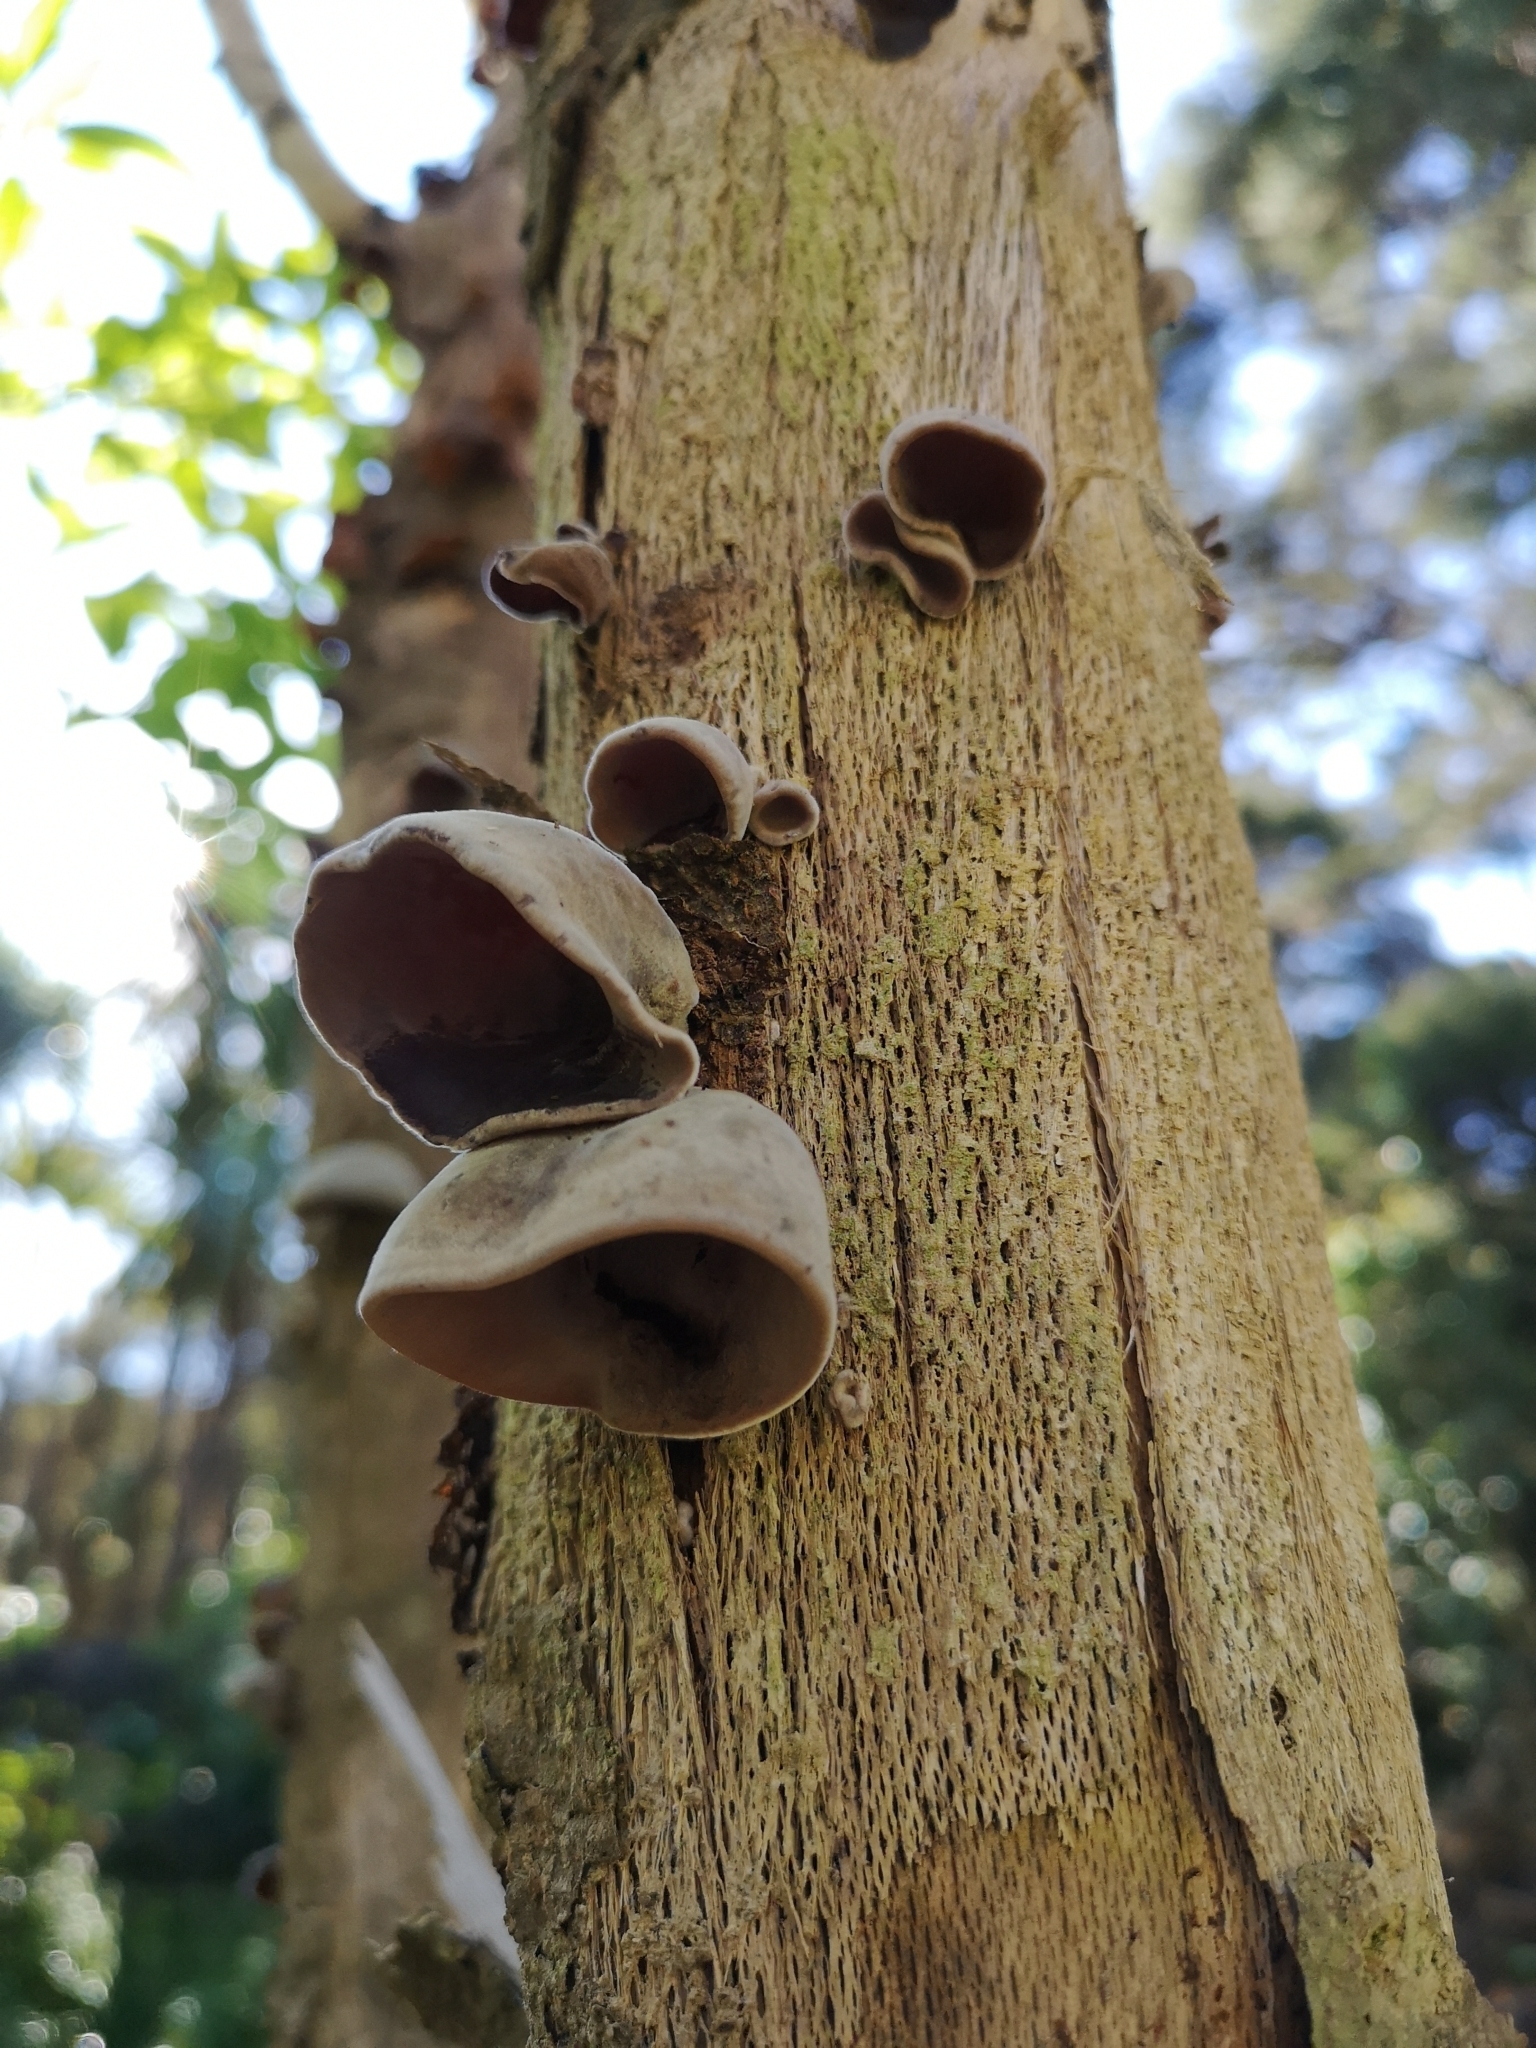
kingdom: Fungi
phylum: Basidiomycota
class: Agaricomycetes
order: Auriculariales
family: Auriculariaceae
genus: Auricularia
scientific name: Auricularia cornea
